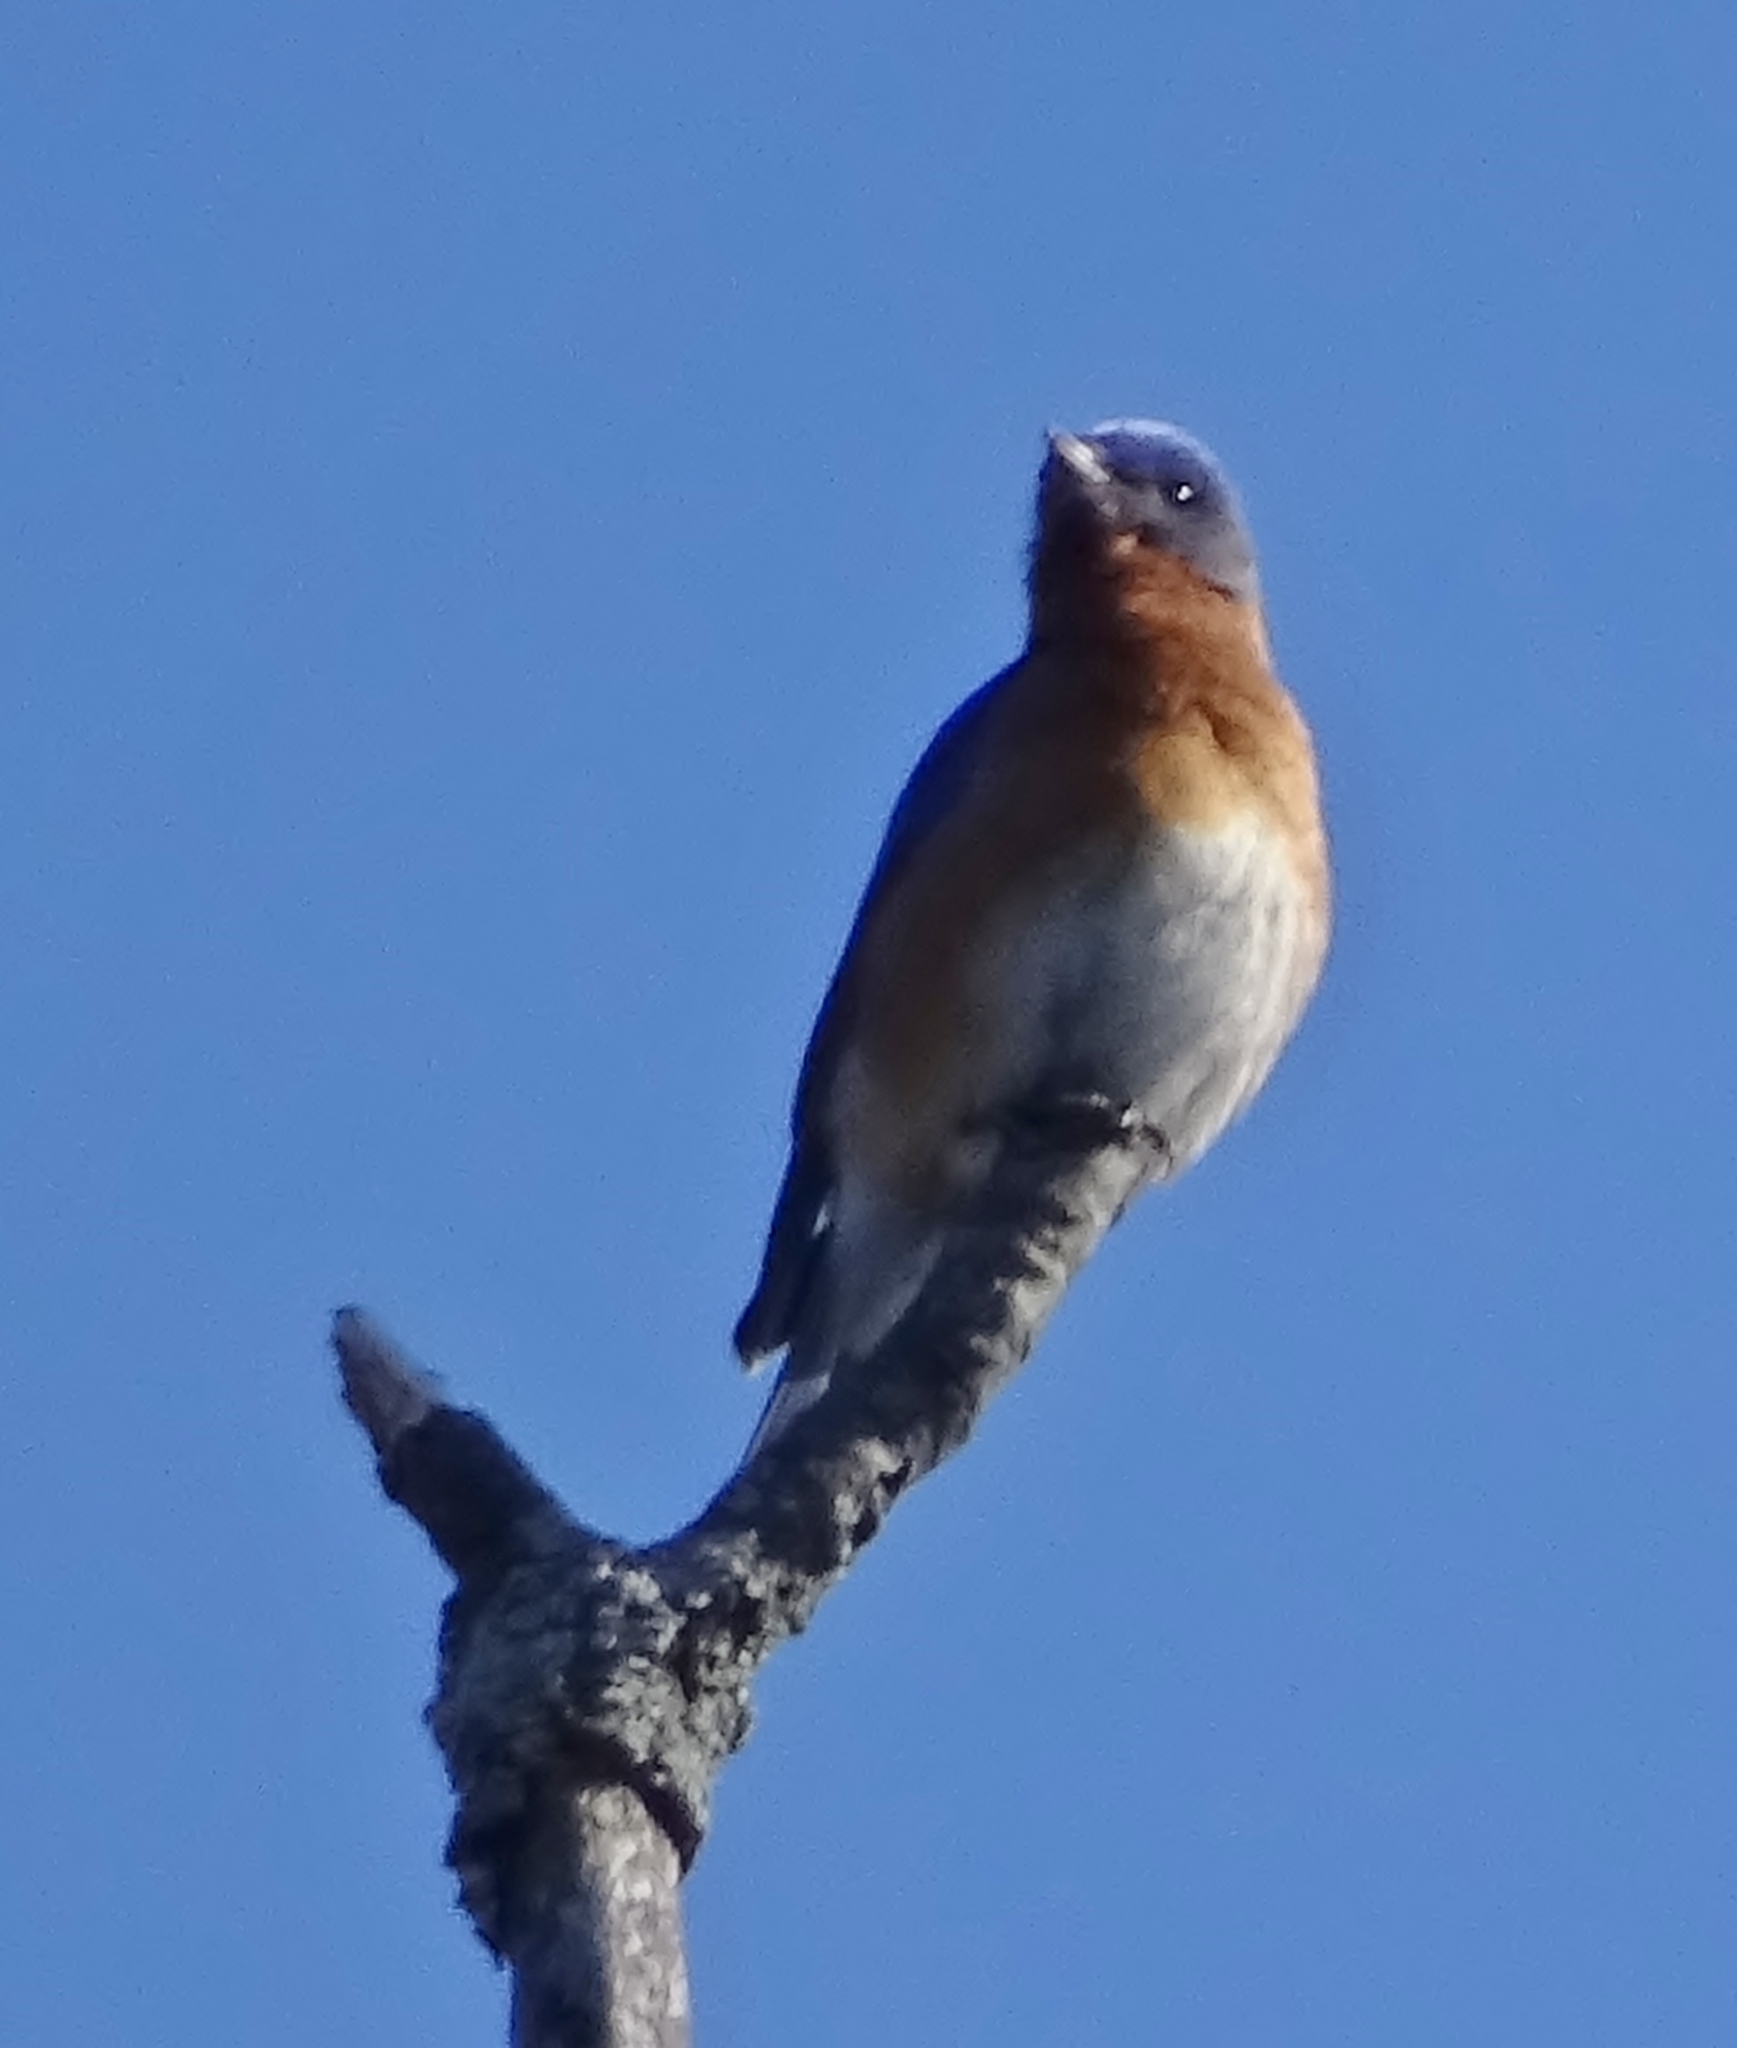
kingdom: Animalia
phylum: Chordata
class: Aves
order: Passeriformes
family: Turdidae
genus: Sialia
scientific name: Sialia sialis
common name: Eastern bluebird
